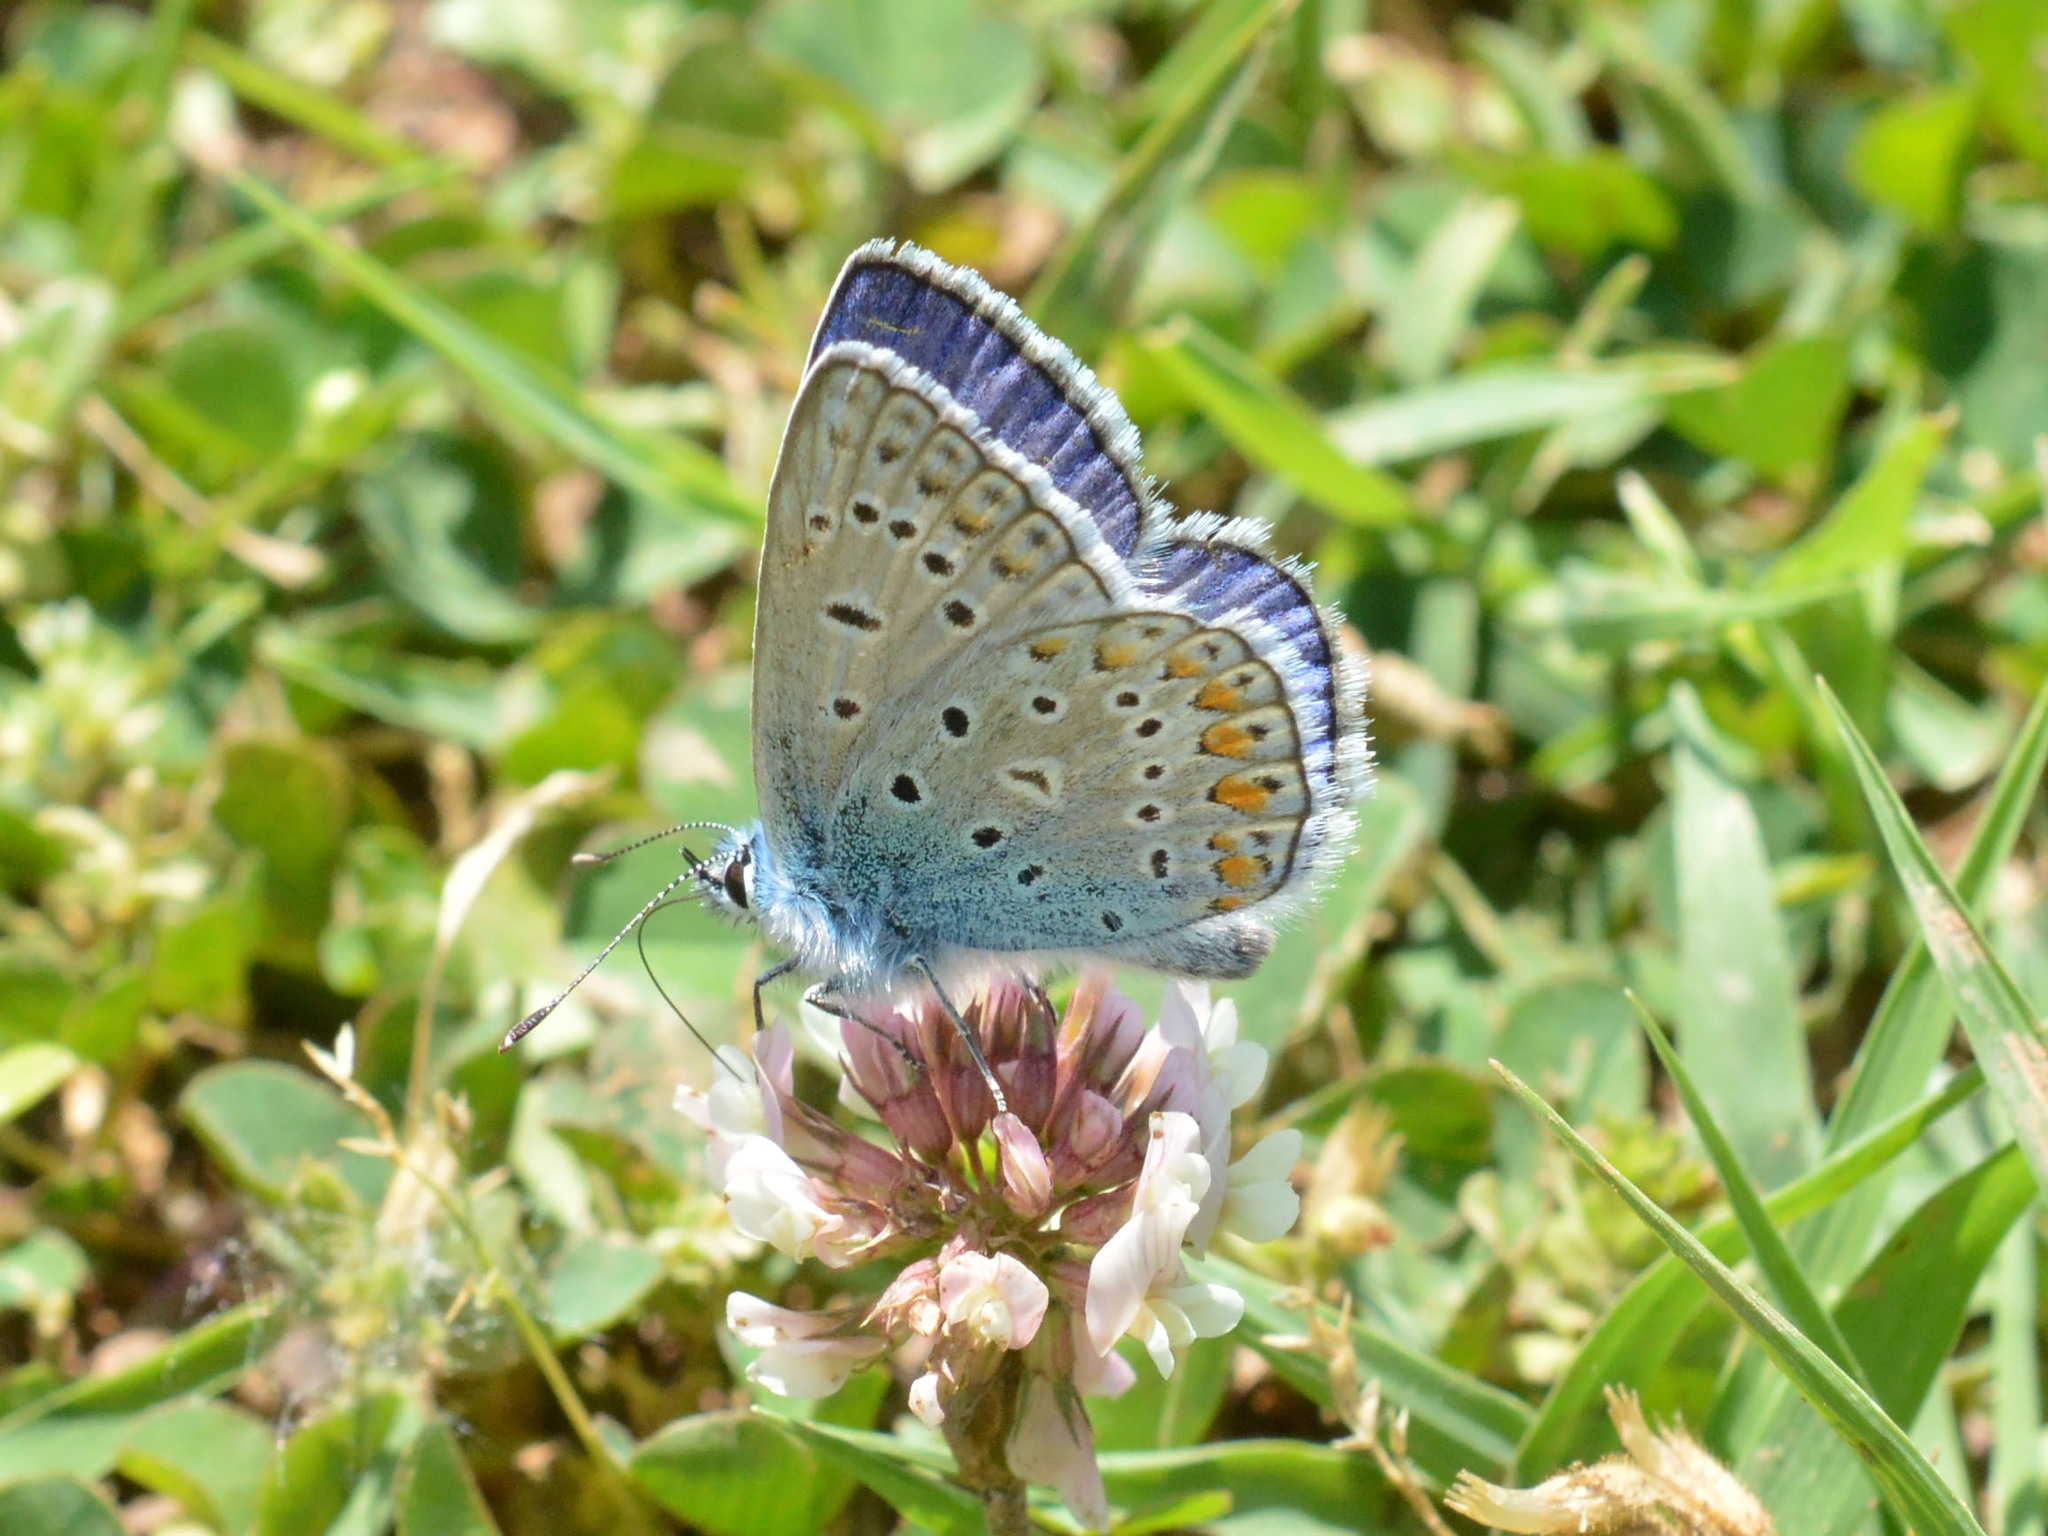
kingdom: Animalia
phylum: Arthropoda
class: Insecta
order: Lepidoptera
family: Lycaenidae
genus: Polyommatus
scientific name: Polyommatus icarus
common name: Common blue
